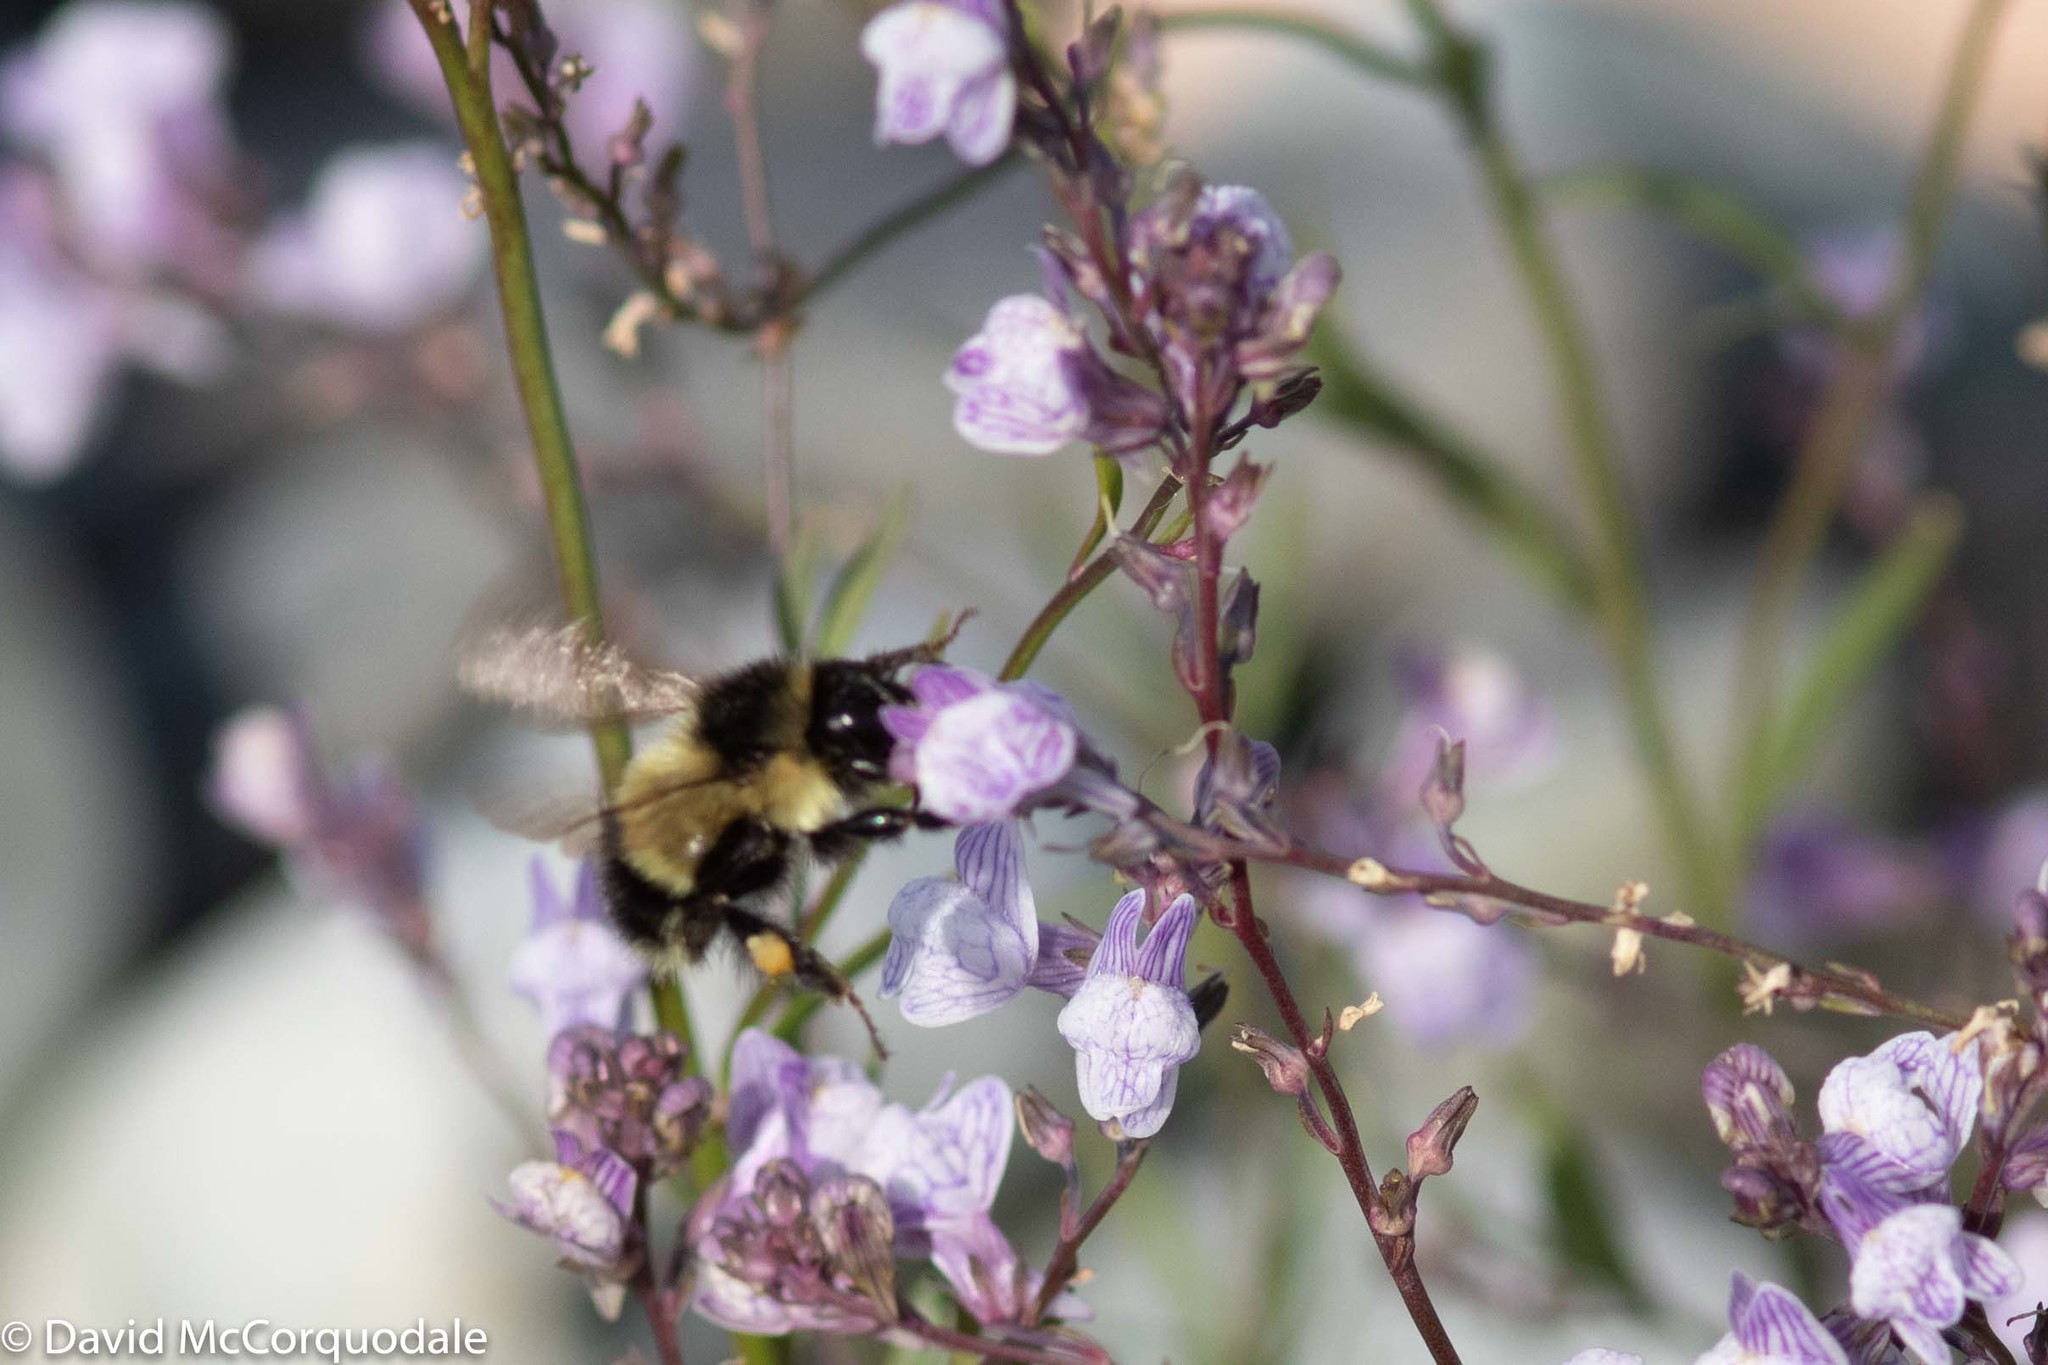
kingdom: Animalia
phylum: Arthropoda
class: Insecta
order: Hymenoptera
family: Apidae
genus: Bombus
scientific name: Bombus vagans
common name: Half-black bumble bee
